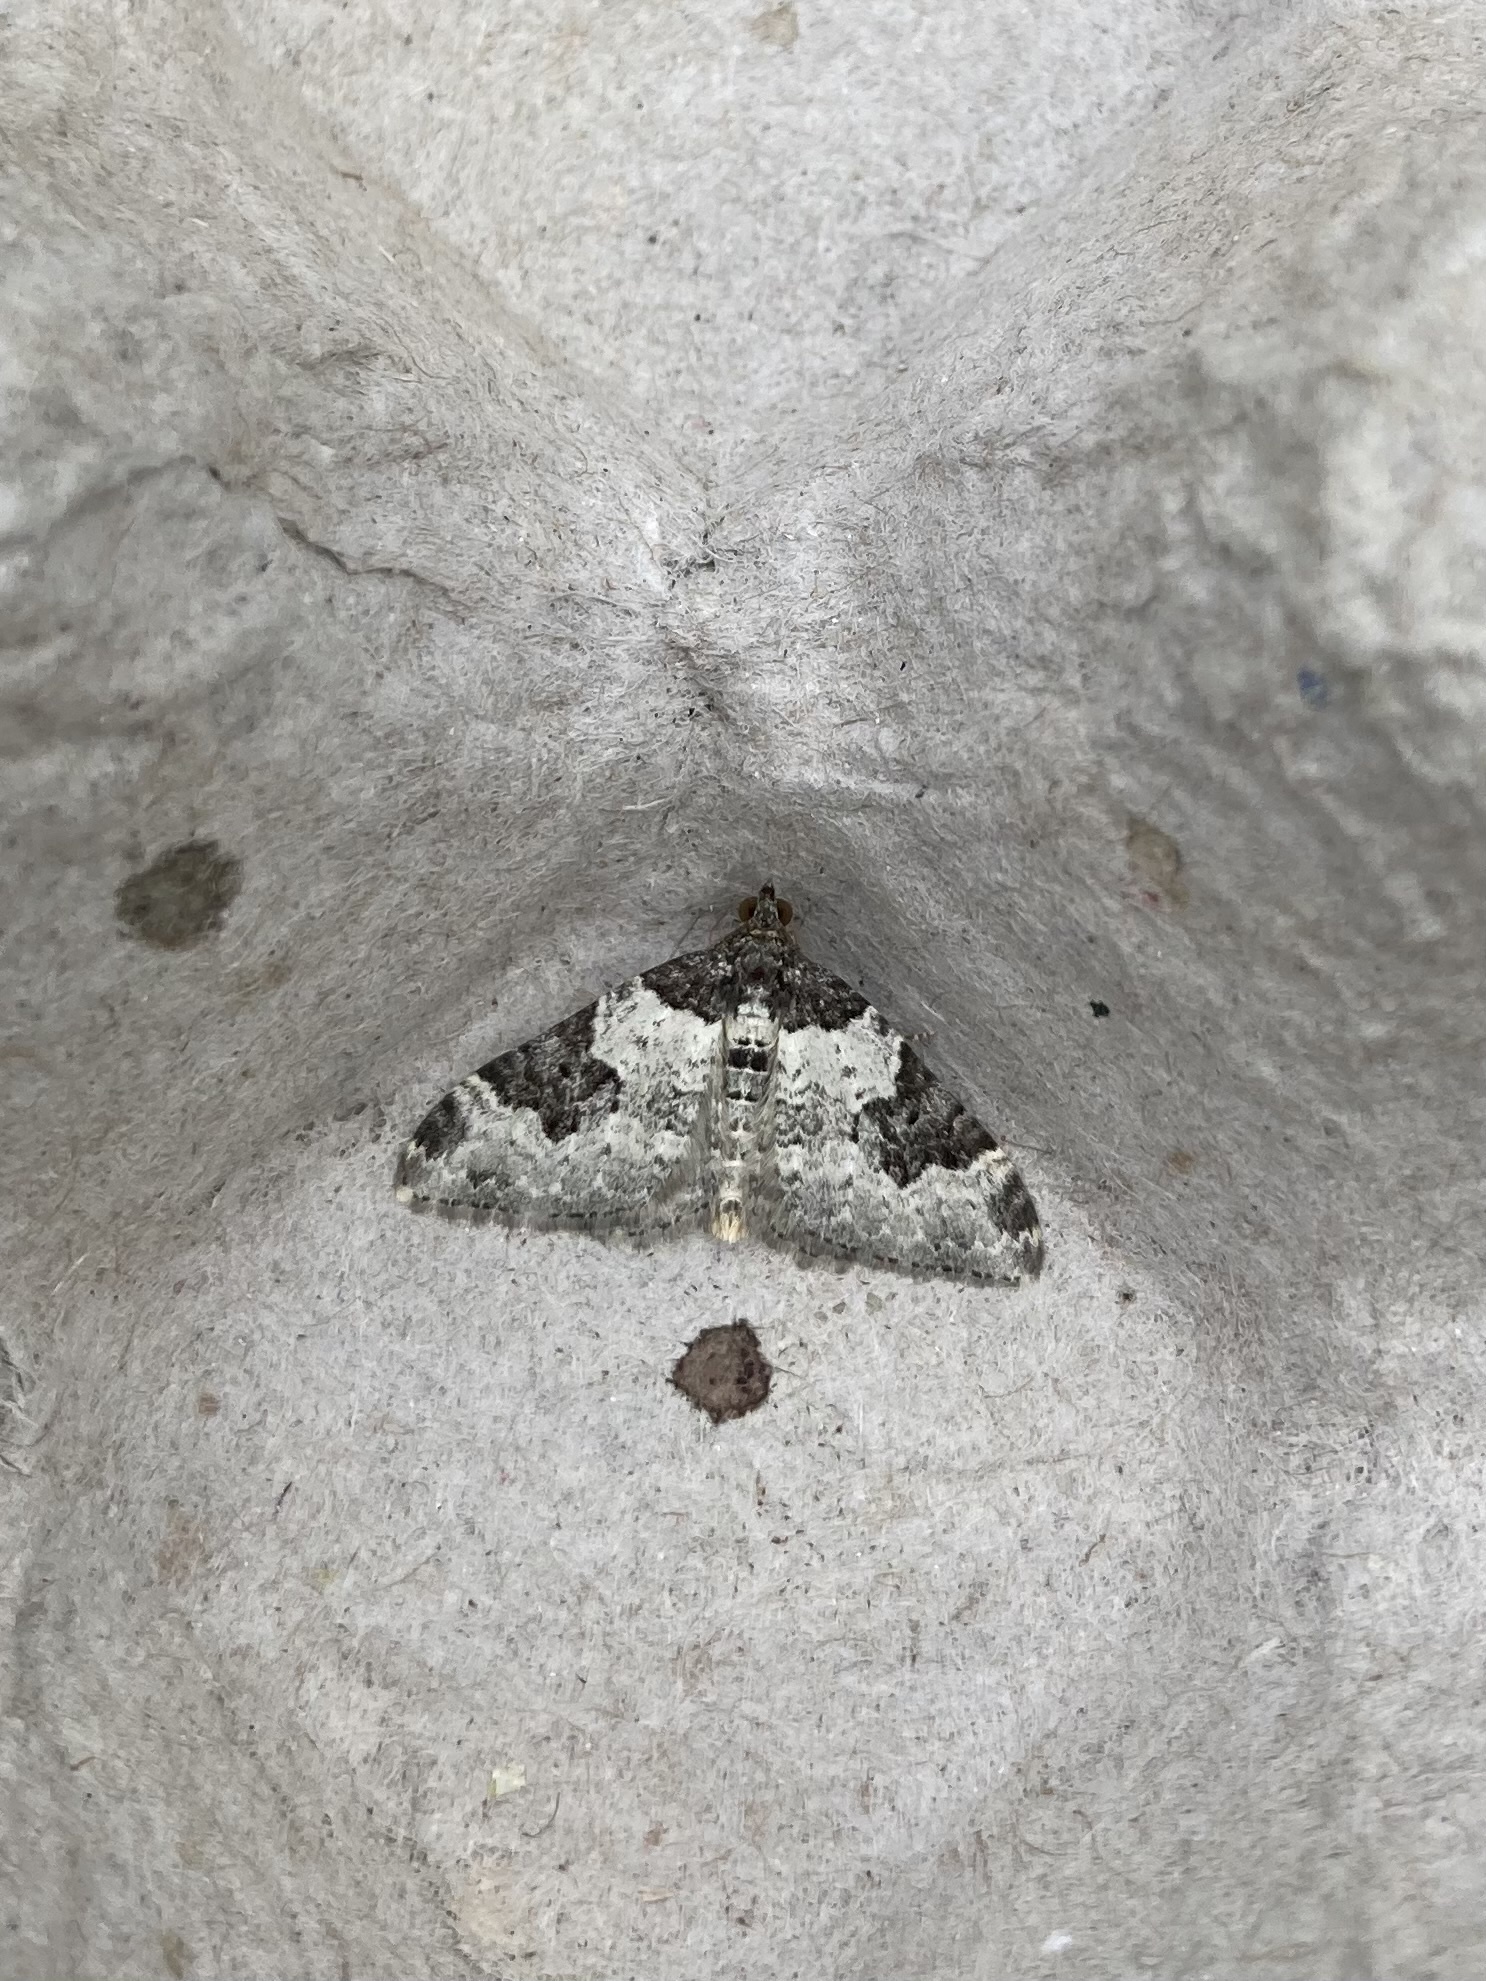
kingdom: Animalia
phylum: Arthropoda
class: Insecta
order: Lepidoptera
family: Geometridae
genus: Xanthorhoe
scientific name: Xanthorhoe fluctuata
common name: Garden carpet
